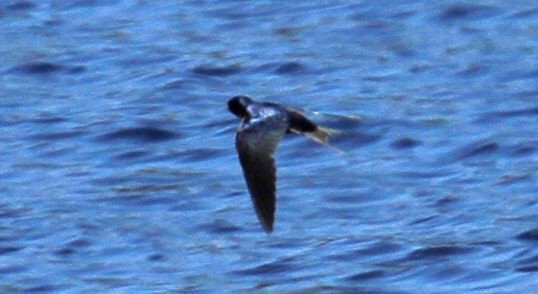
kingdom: Animalia
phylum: Chordata
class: Aves
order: Passeriformes
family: Hirundinidae
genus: Progne
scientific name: Progne subis
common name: Purple martin
